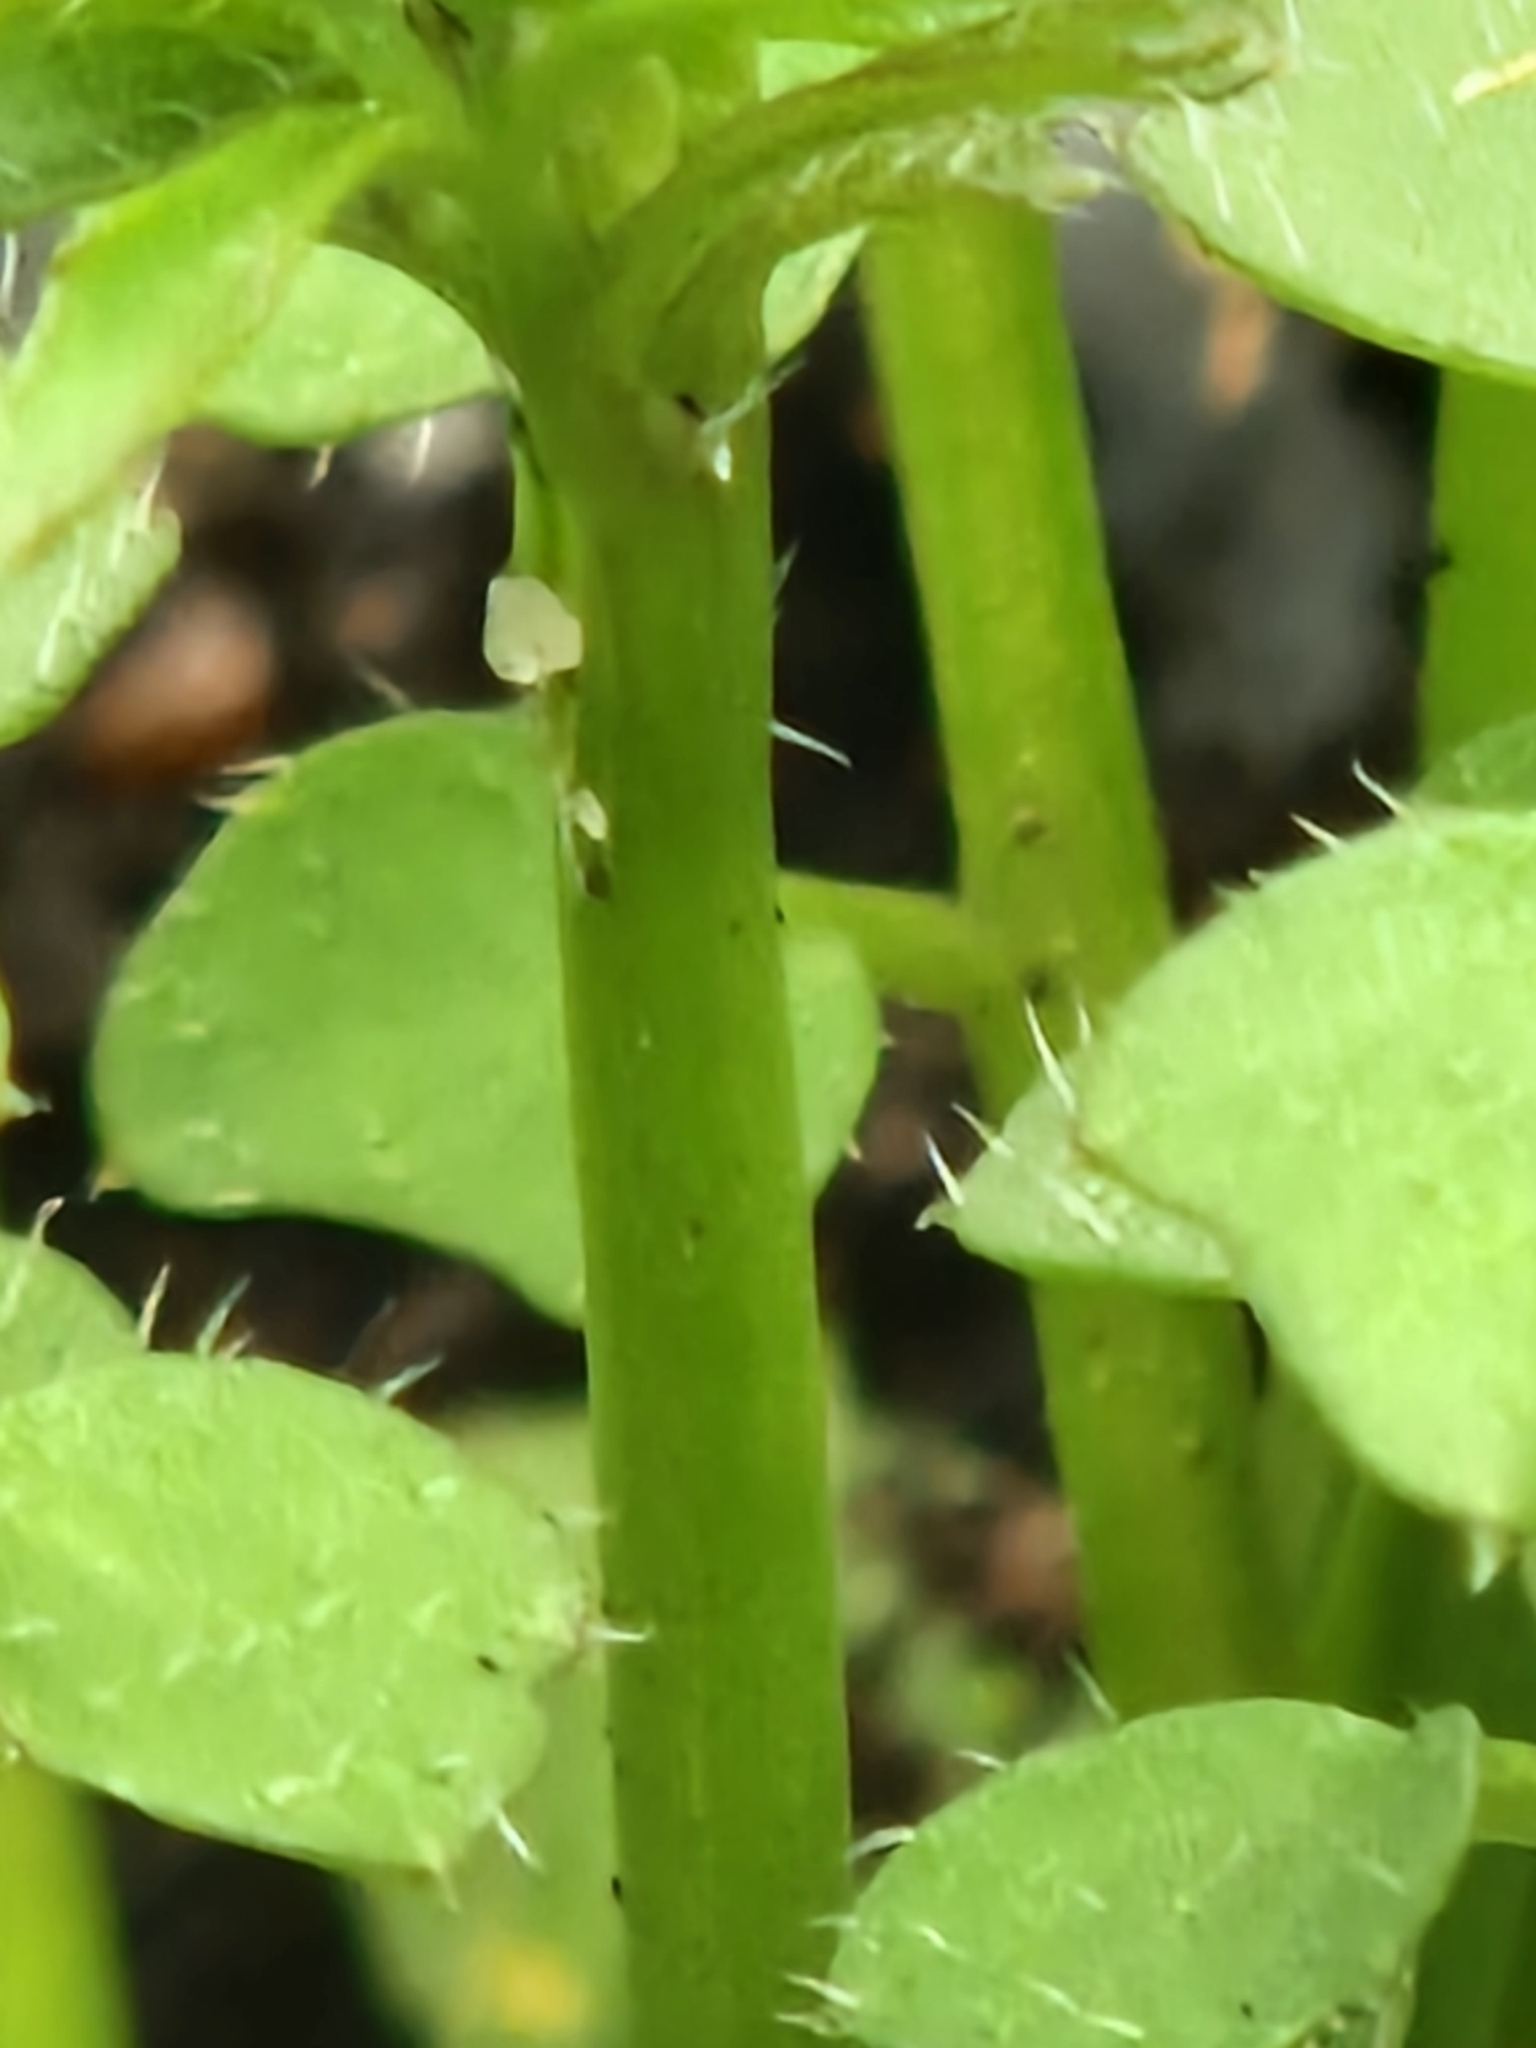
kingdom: Plantae
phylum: Tracheophyta
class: Magnoliopsida
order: Brassicales
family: Brassicaceae
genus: Cardamine
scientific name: Cardamine hirsuta
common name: Hairy bittercress
